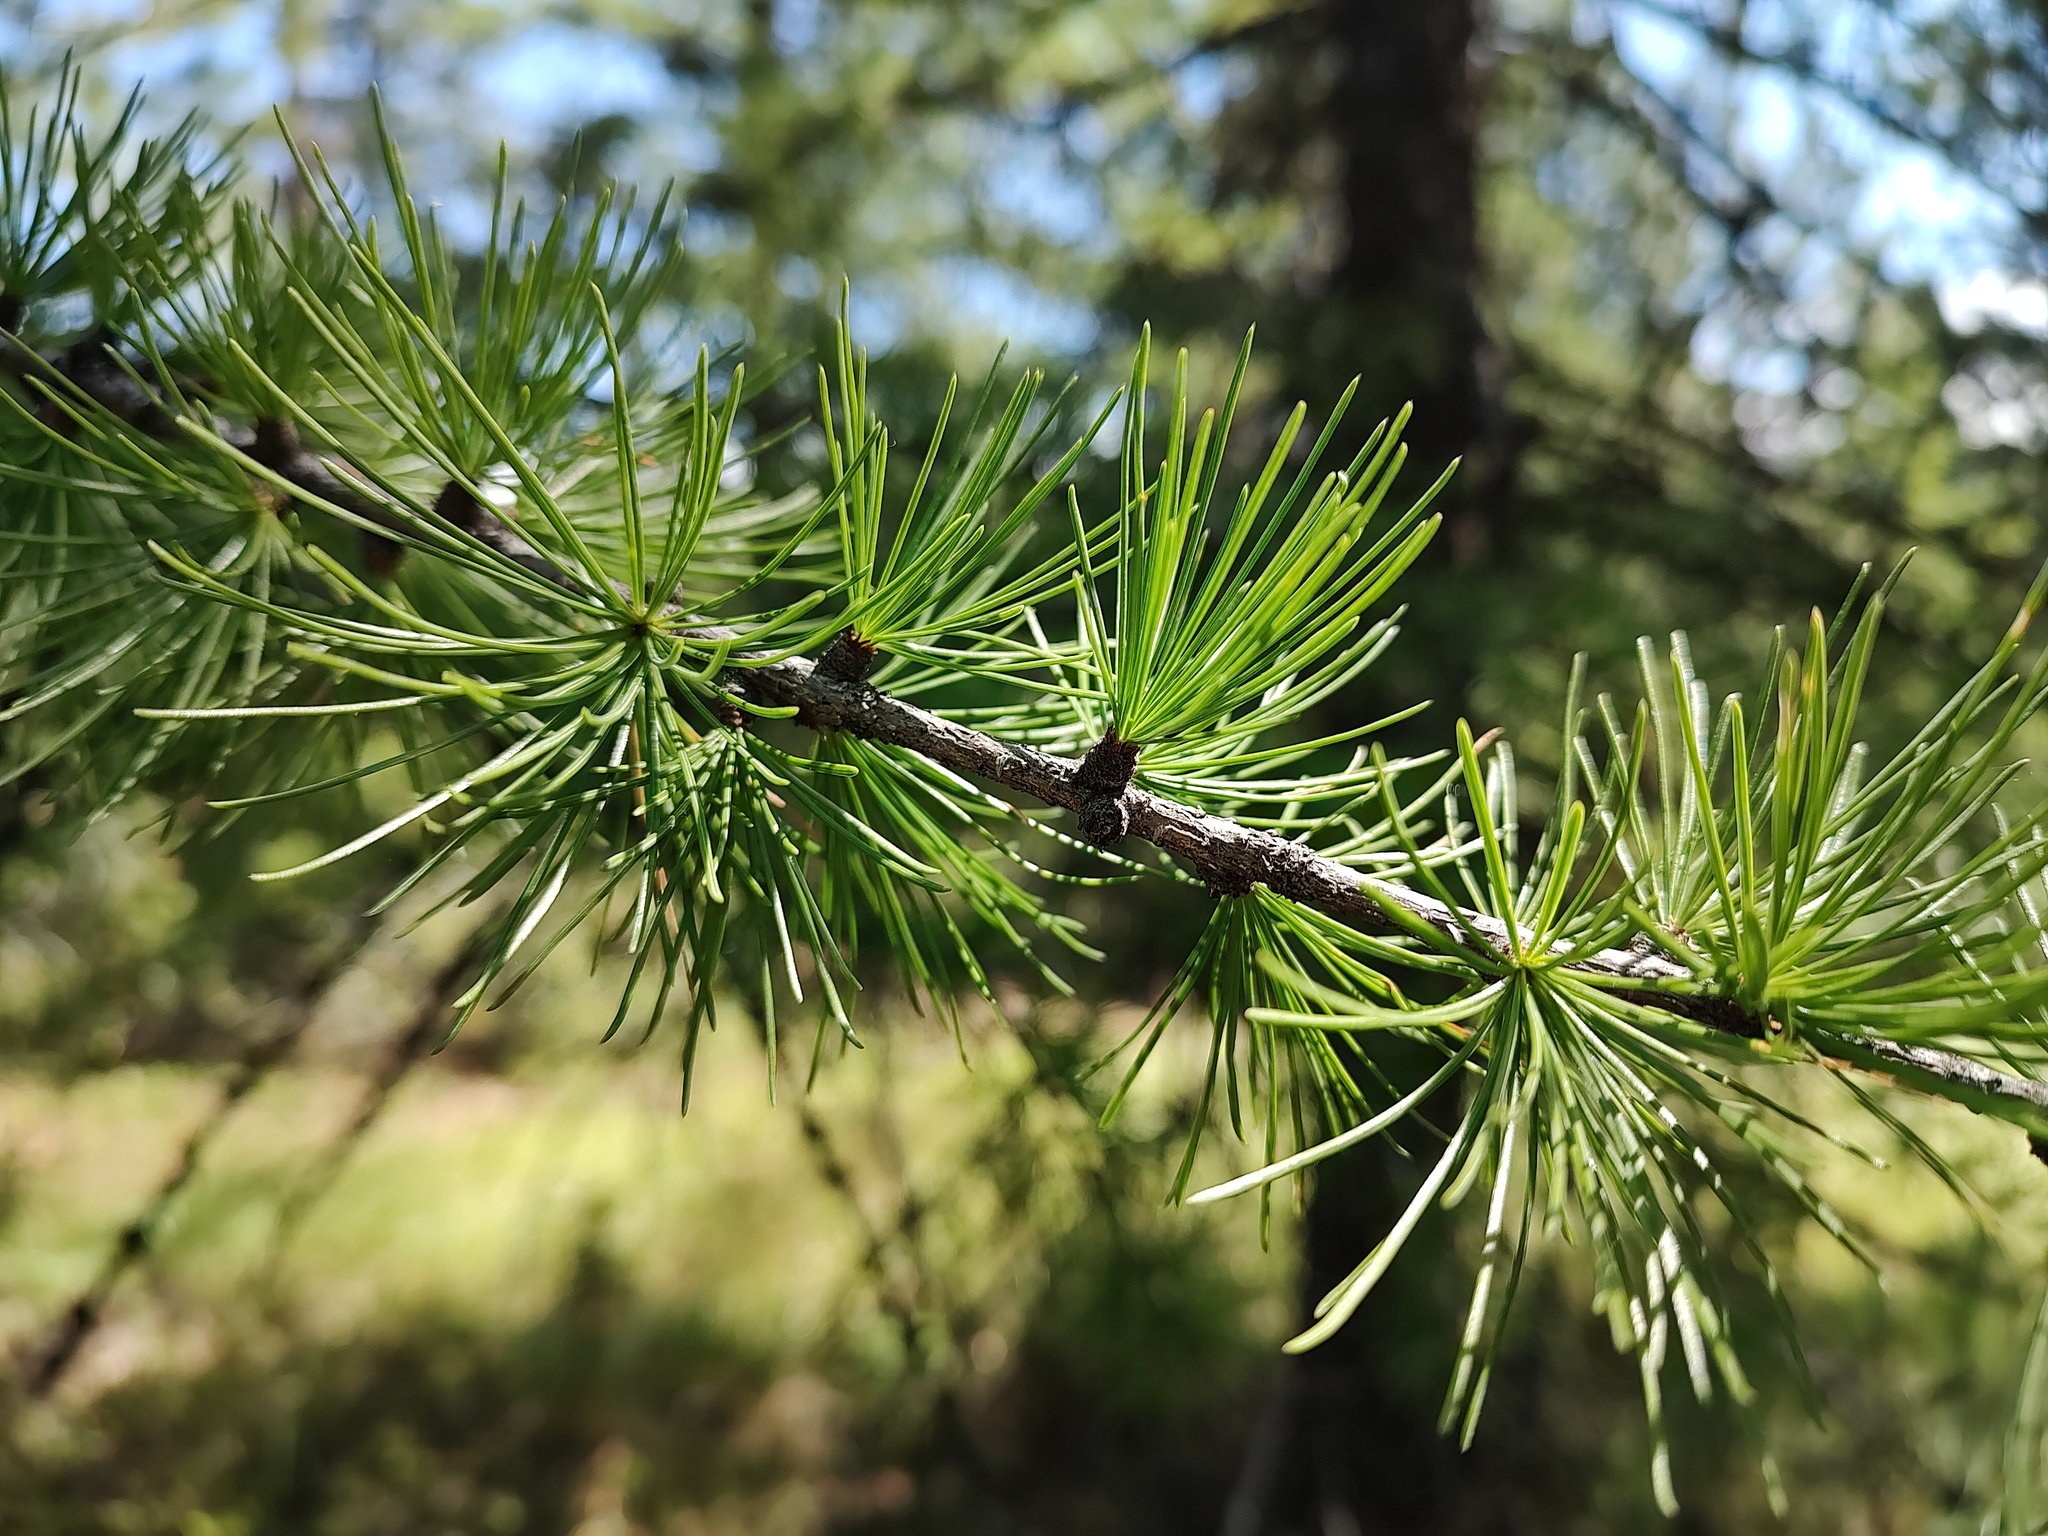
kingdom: Plantae
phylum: Tracheophyta
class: Pinopsida
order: Pinales
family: Pinaceae
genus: Larix
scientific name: Larix occidentalis
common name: Western larch
